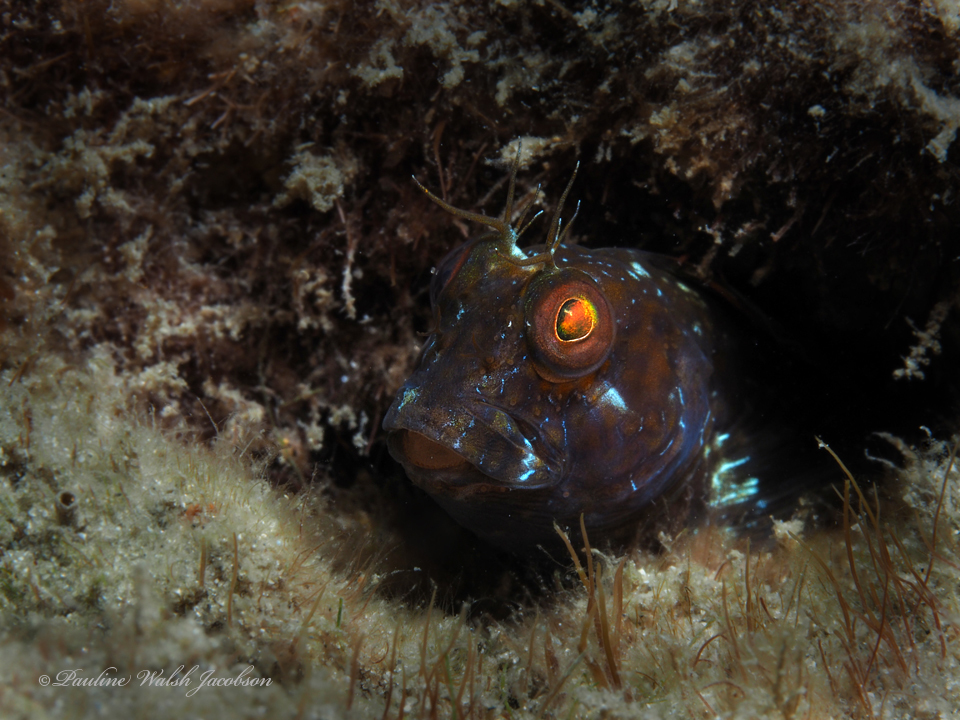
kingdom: Animalia
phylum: Chordata
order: Perciformes
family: Blenniidae
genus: Parablennius
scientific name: Parablennius marmoreus
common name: Seaweed blenny
